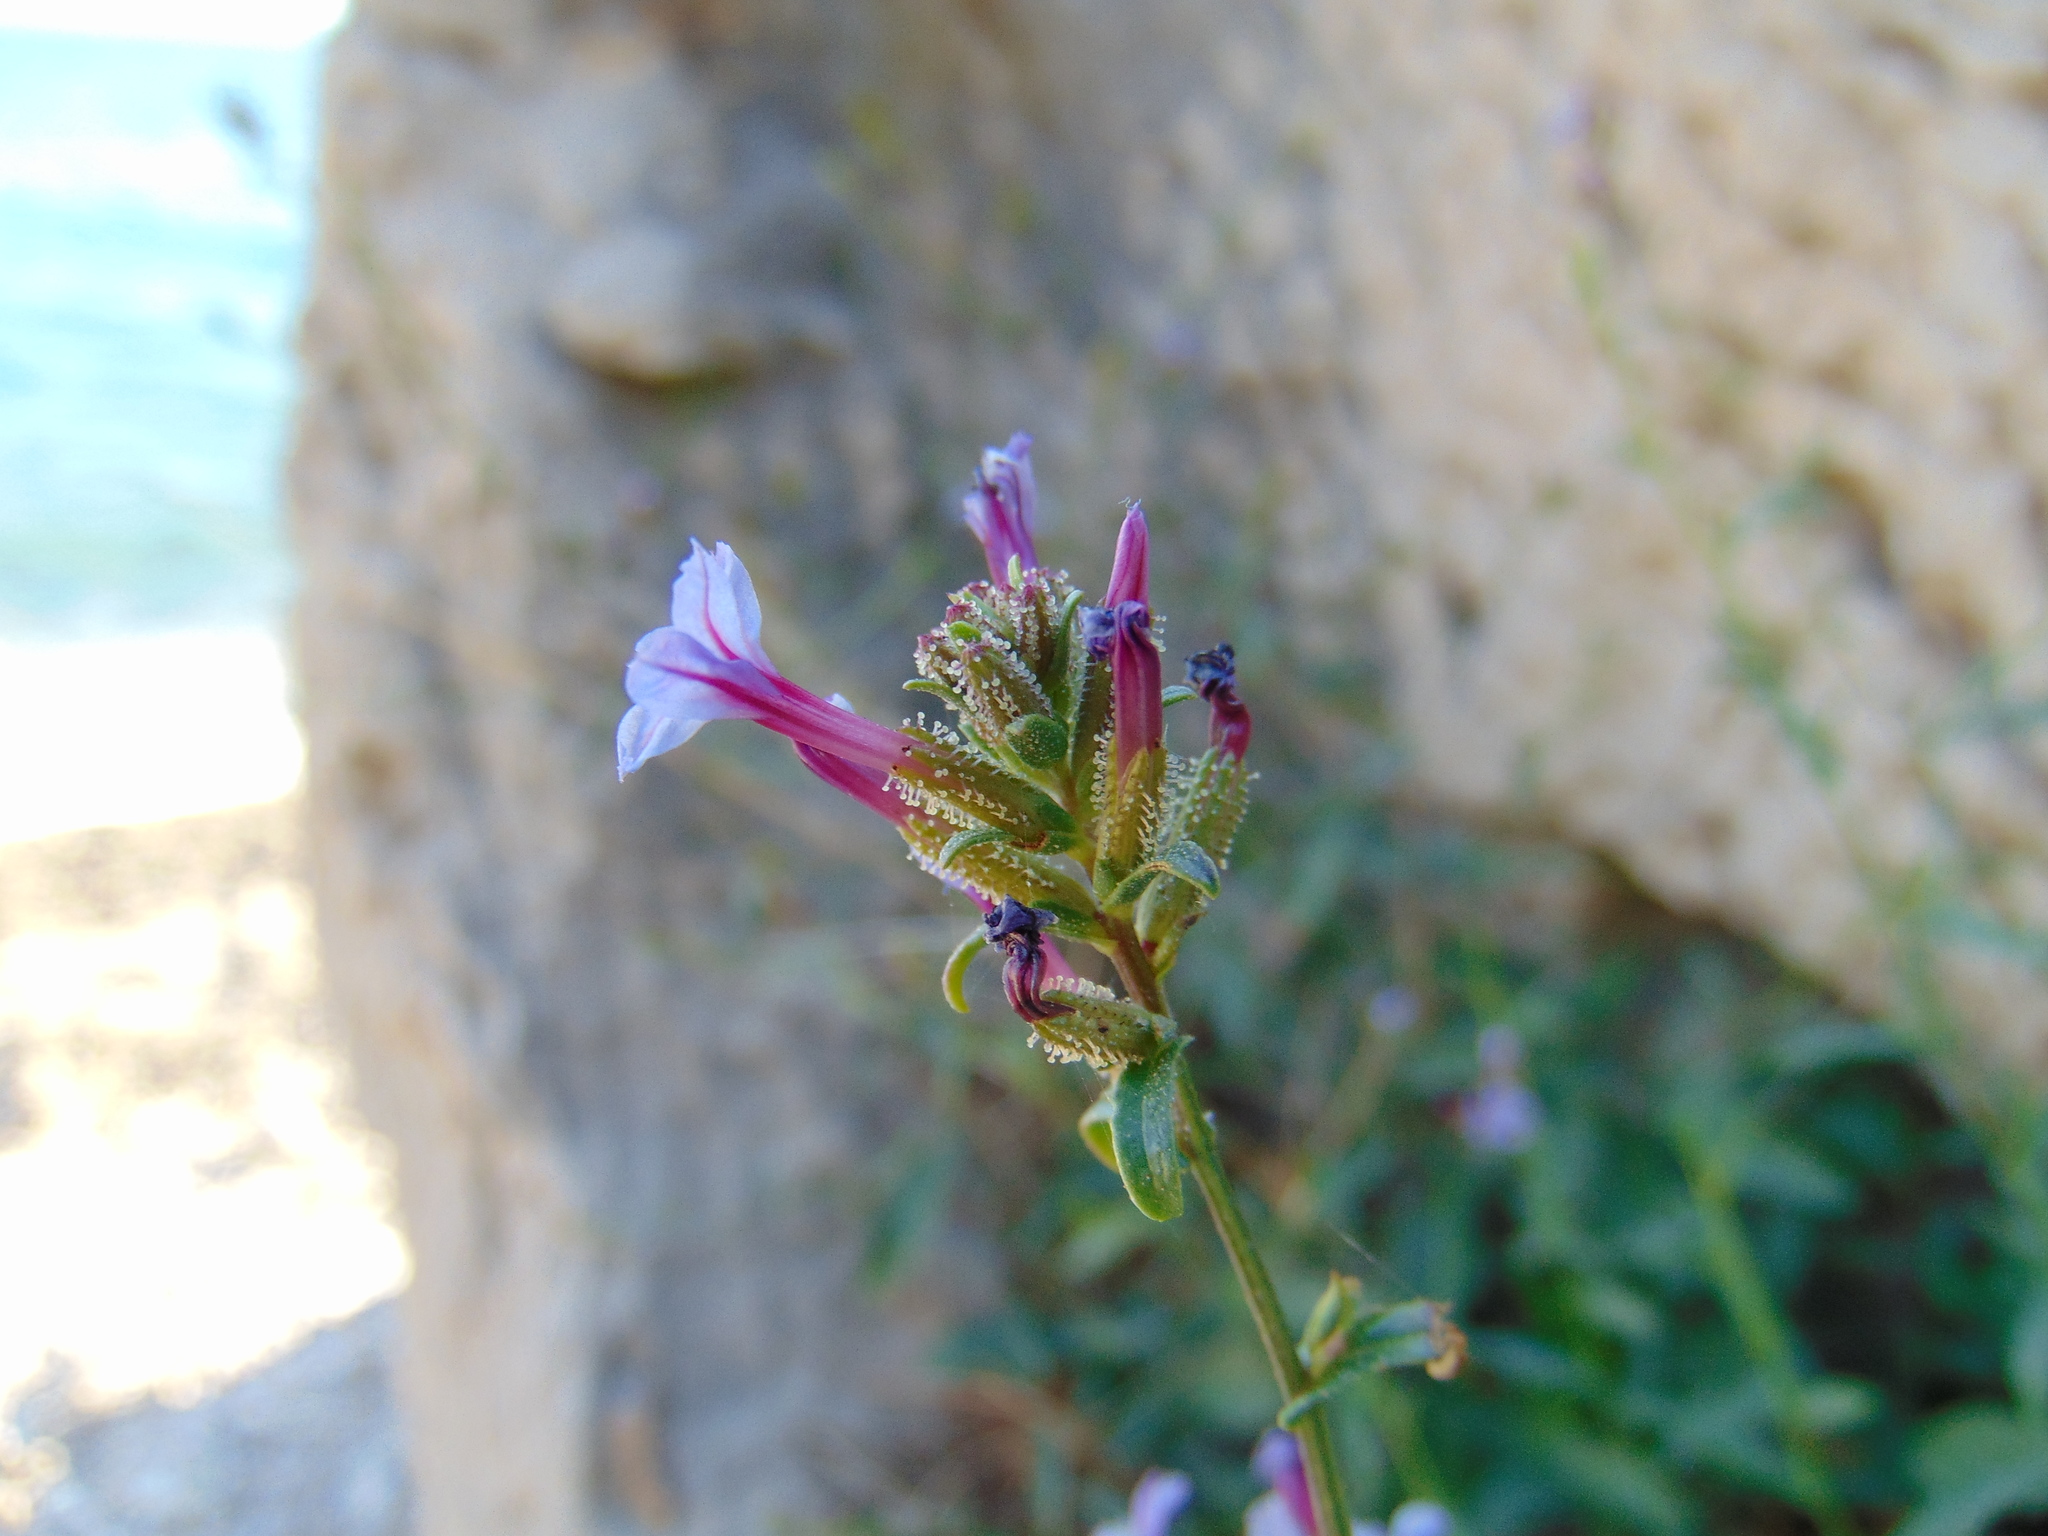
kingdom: Plantae
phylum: Tracheophyta
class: Magnoliopsida
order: Caryophyllales
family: Plumbaginaceae
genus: Plumbago
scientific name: Plumbago europaea
